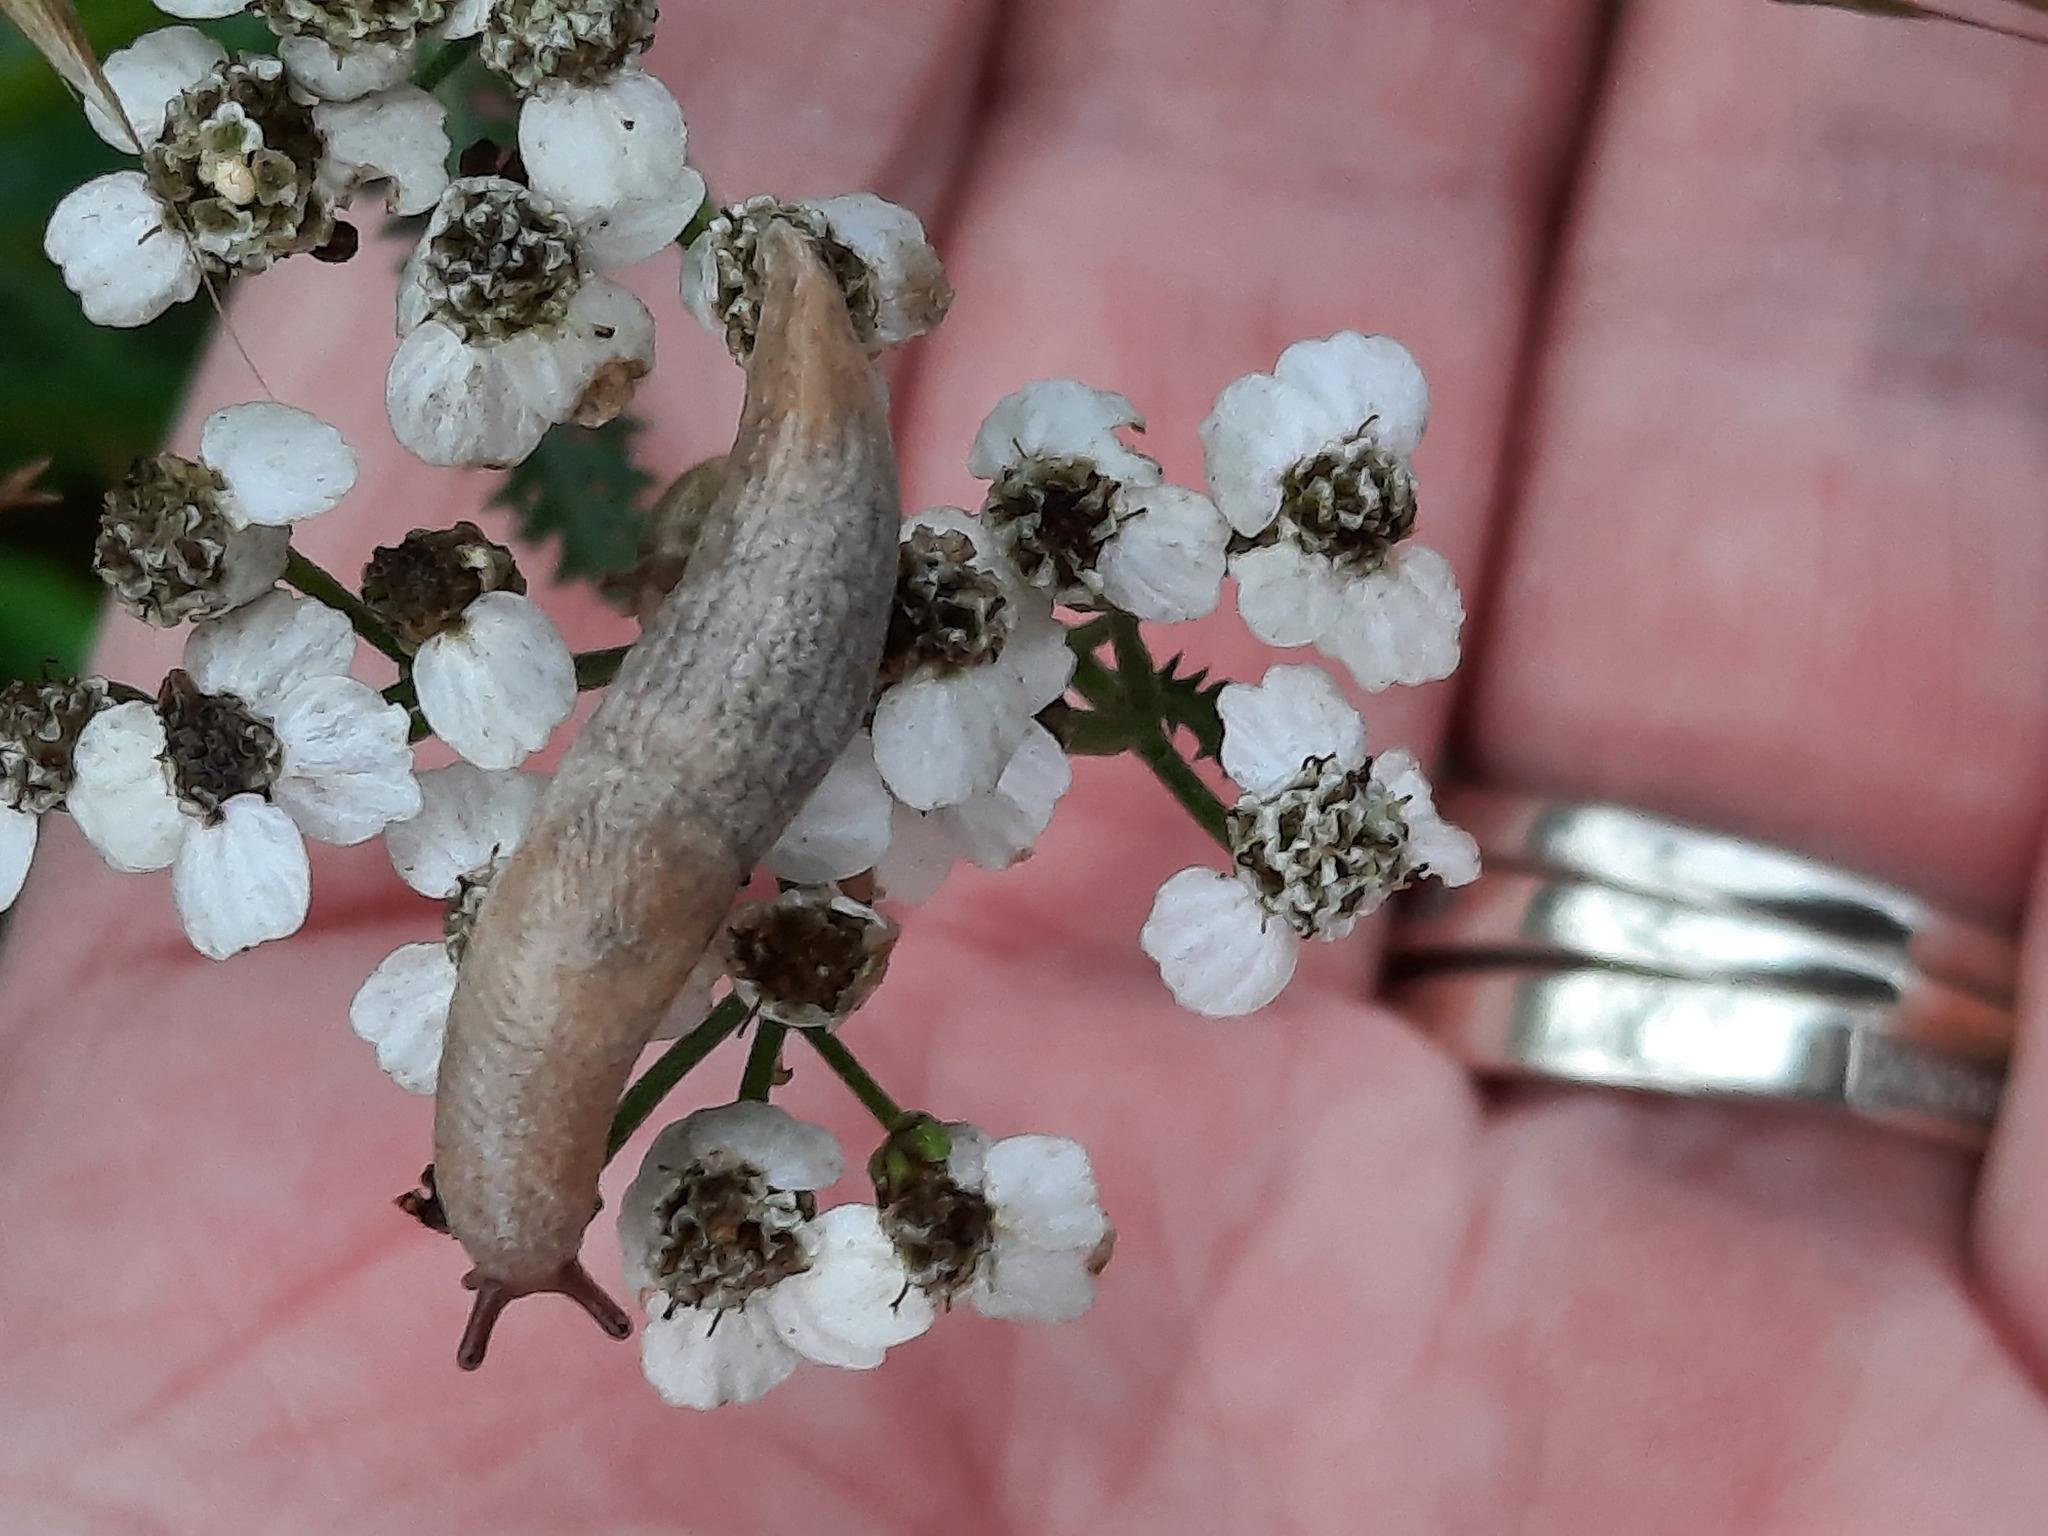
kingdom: Animalia
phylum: Mollusca
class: Gastropoda
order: Stylommatophora
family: Agriolimacidae
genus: Deroceras
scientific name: Deroceras reticulatum
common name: Gray field slug
